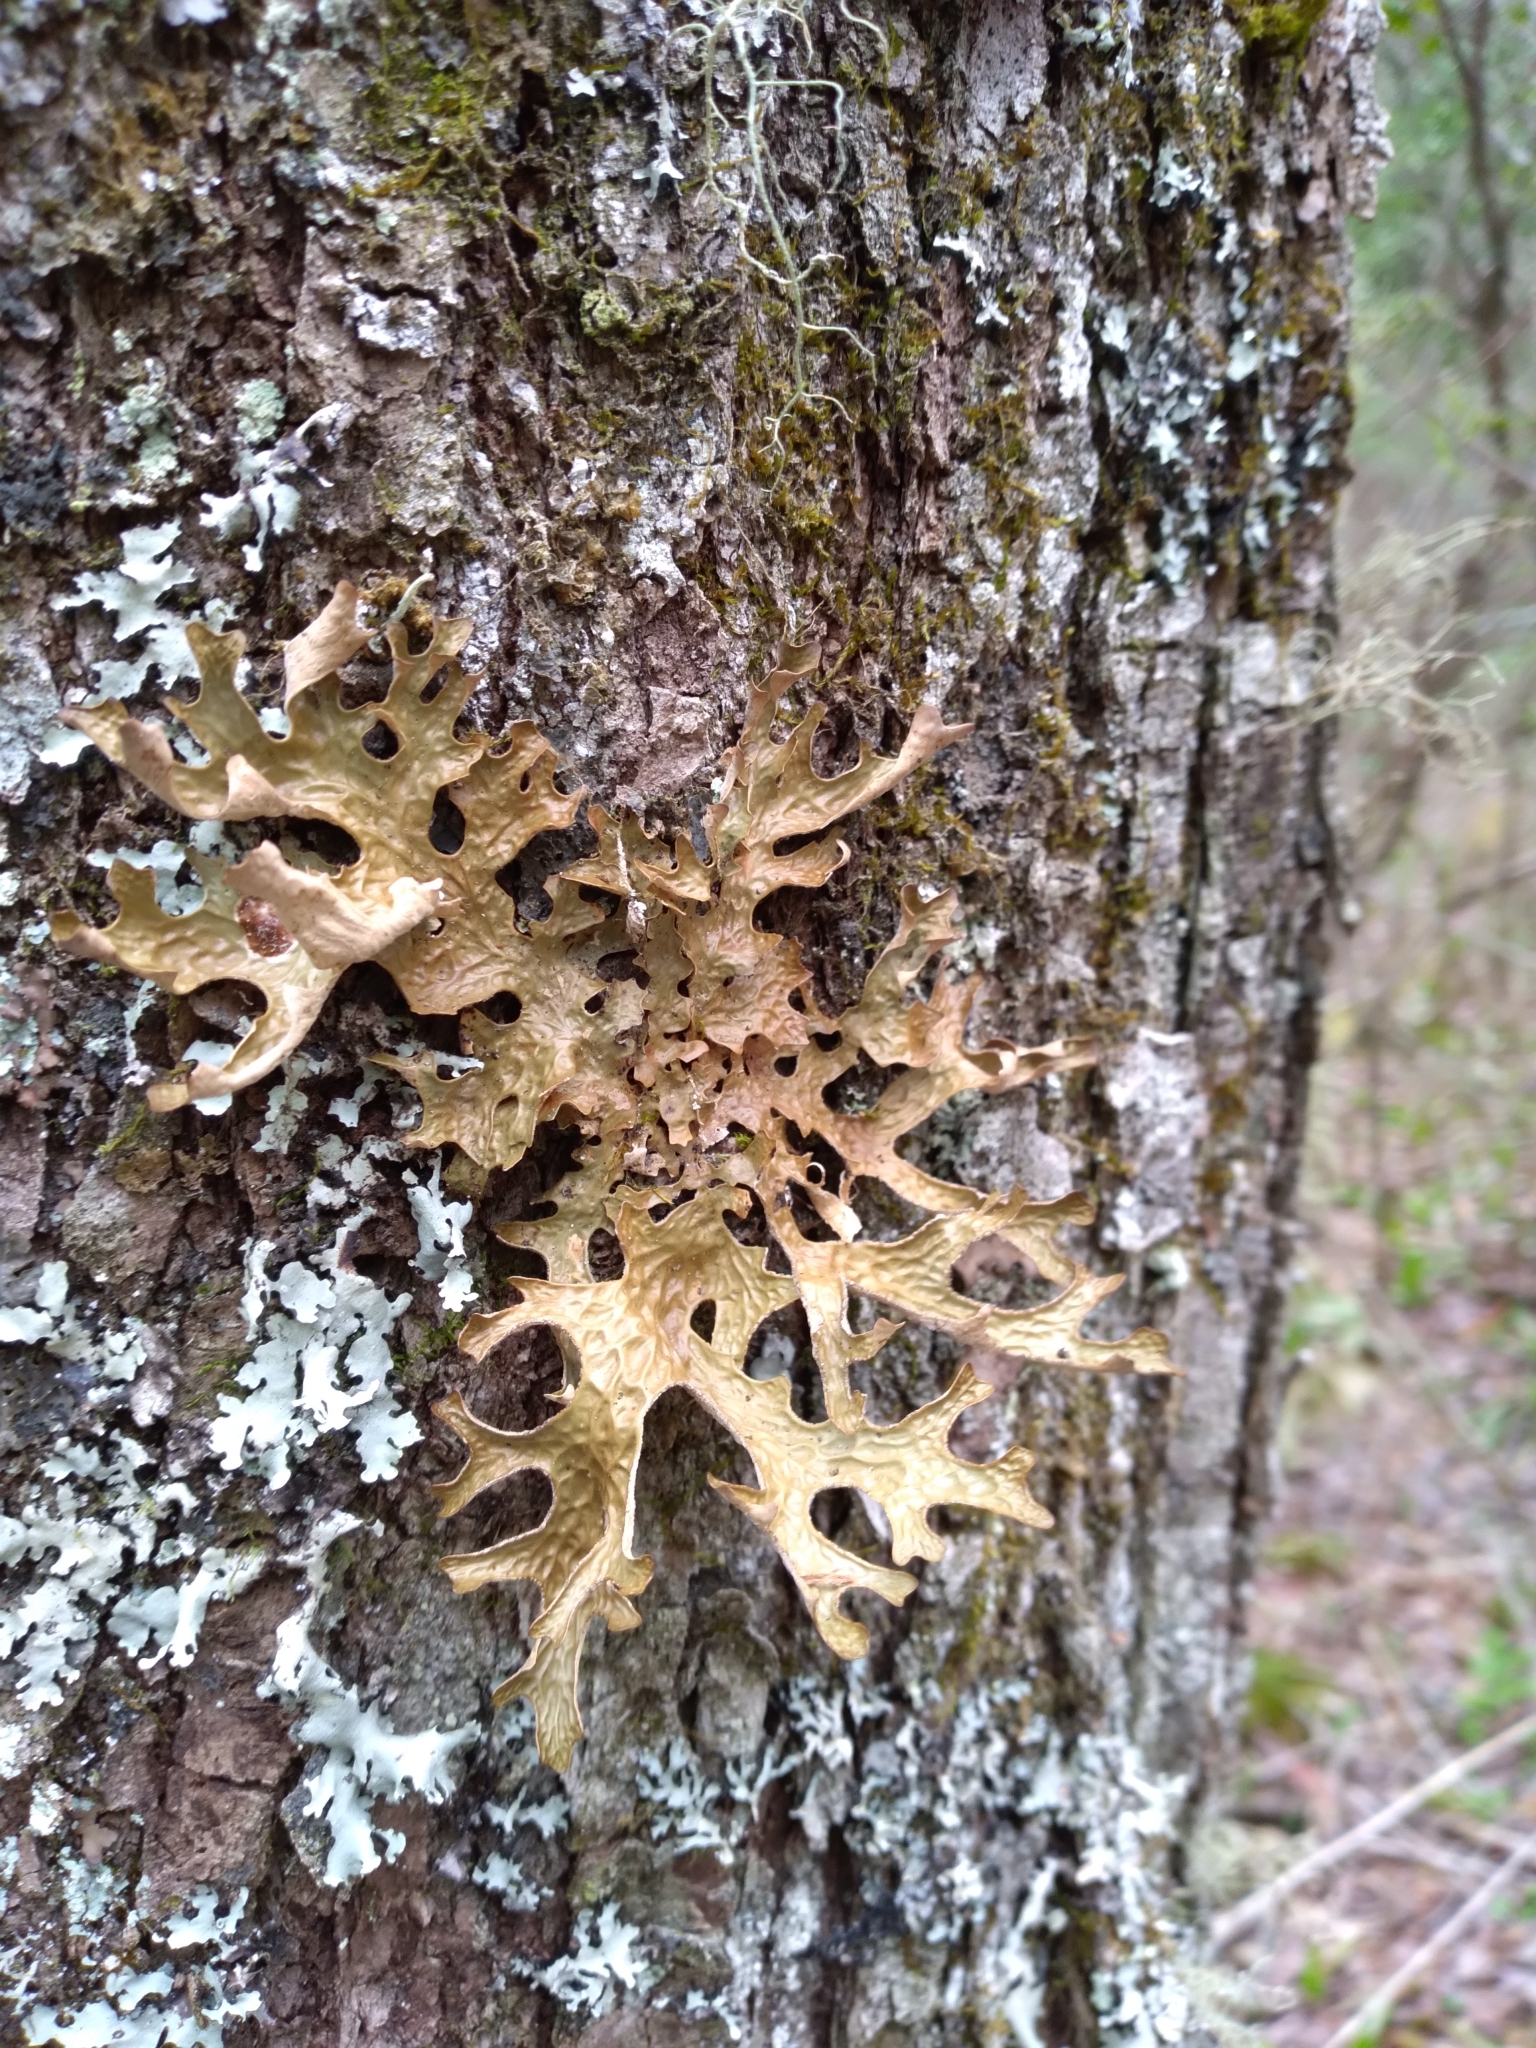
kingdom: Fungi
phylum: Ascomycota
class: Lecanoromycetes
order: Peltigerales
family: Lobariaceae
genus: Lobaria
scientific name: Lobaria pulmonaria
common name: Lungwort
